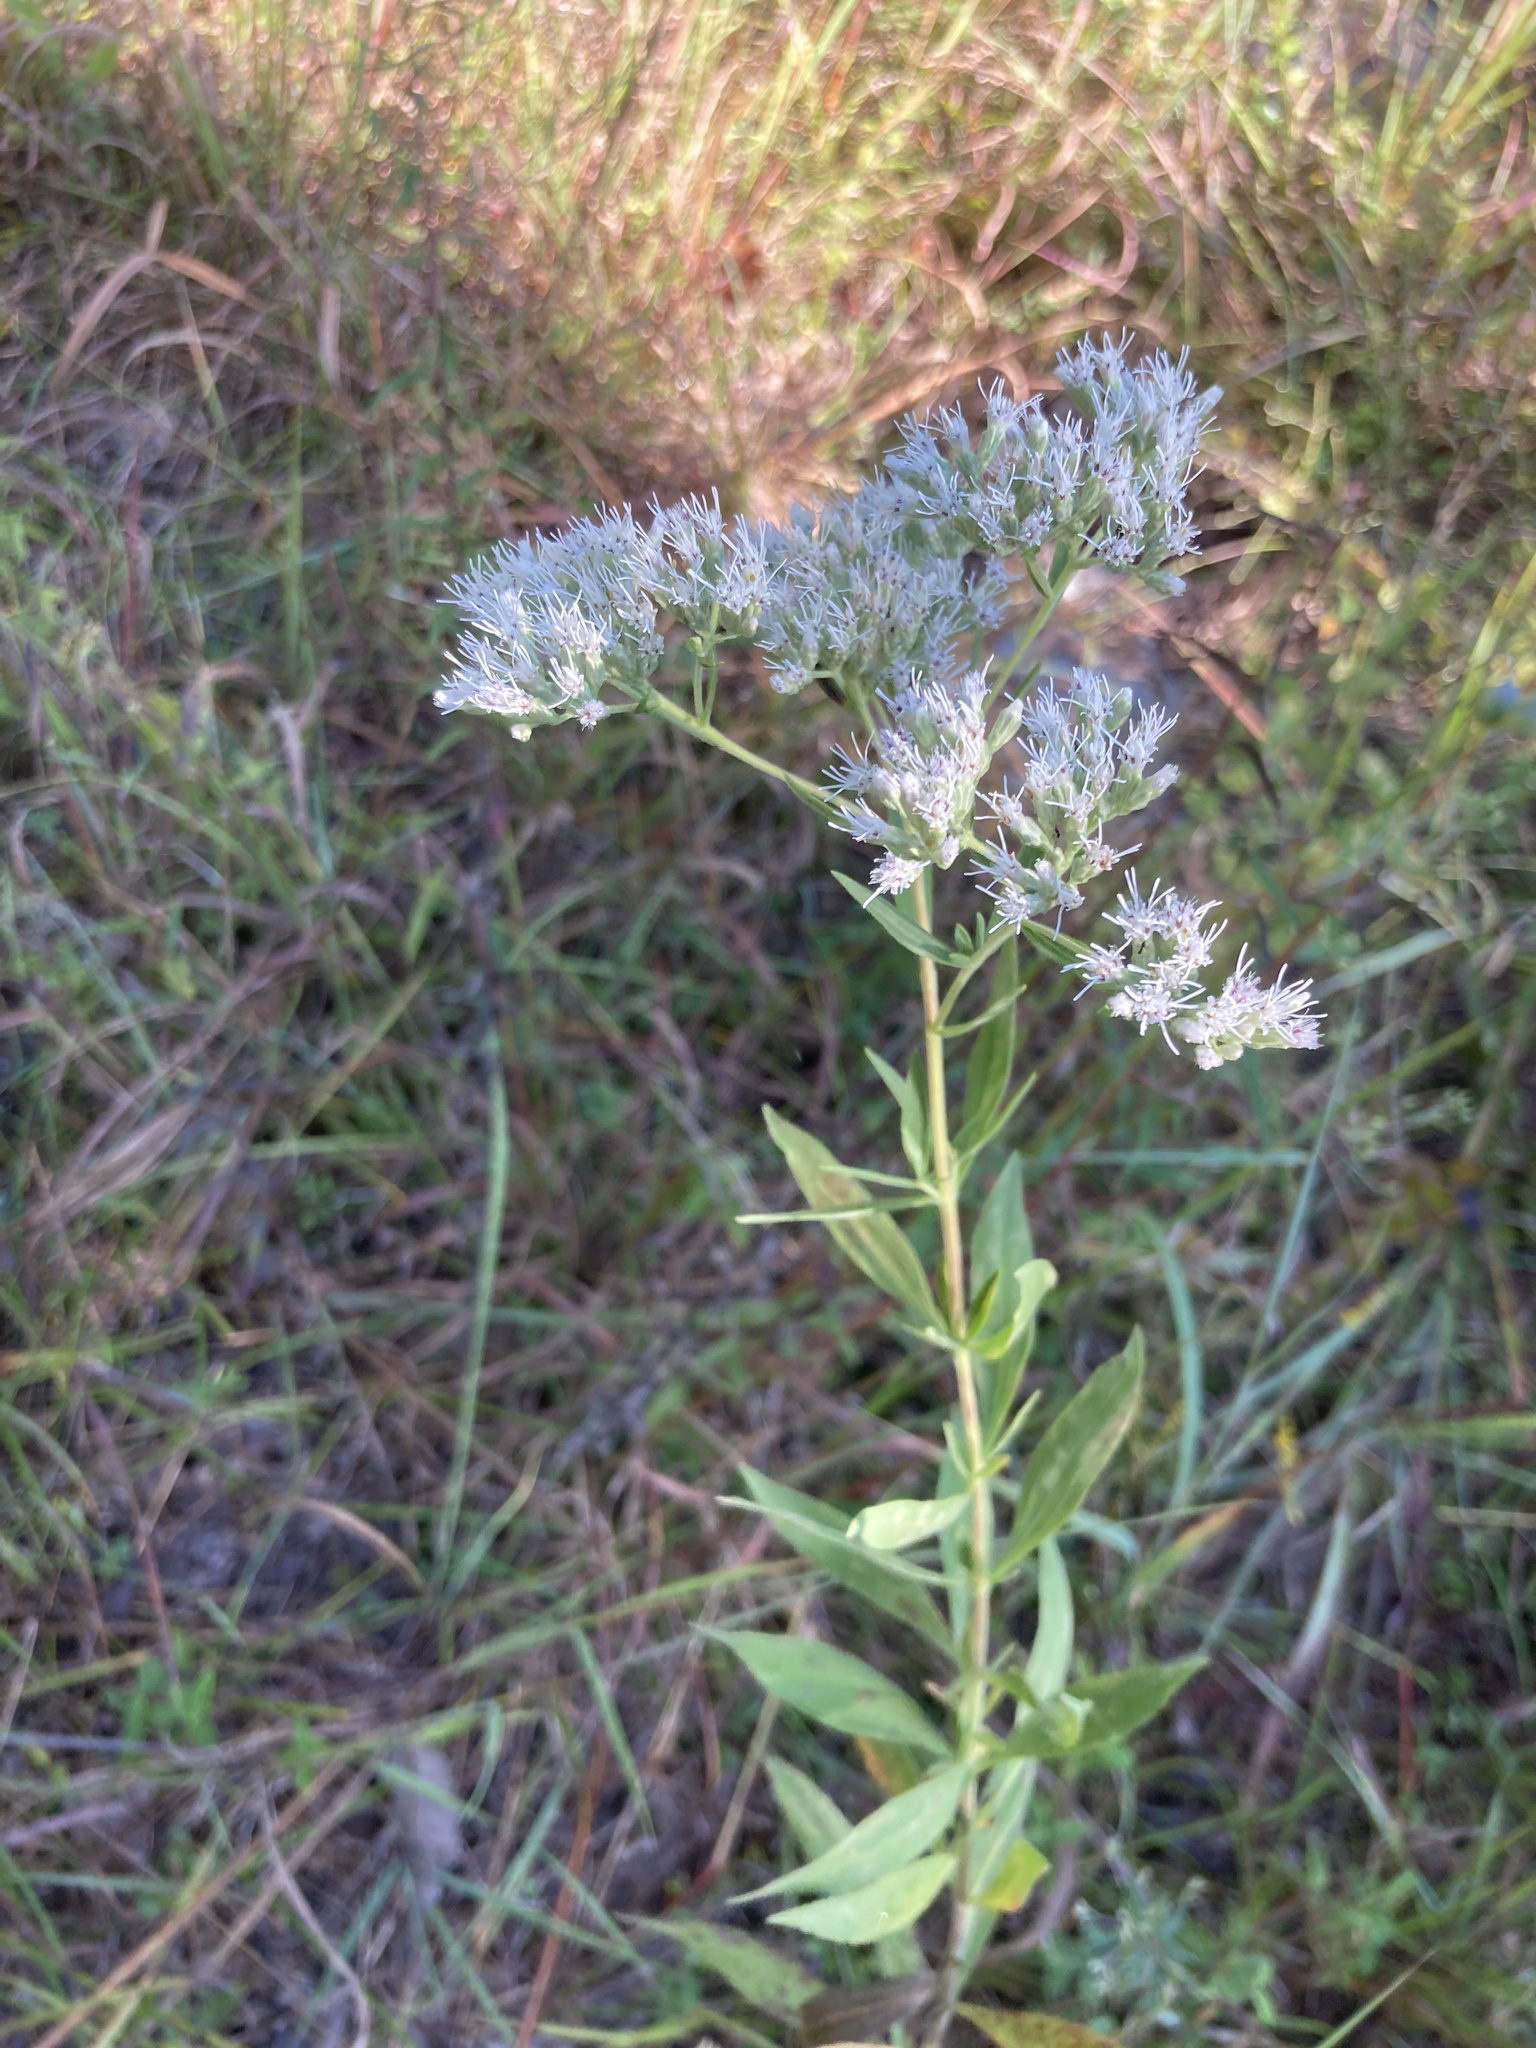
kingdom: Plantae
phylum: Tracheophyta
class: Magnoliopsida
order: Asterales
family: Asteraceae
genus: Eupatorium
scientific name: Eupatorium altissimum
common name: Tall thoroughwort
